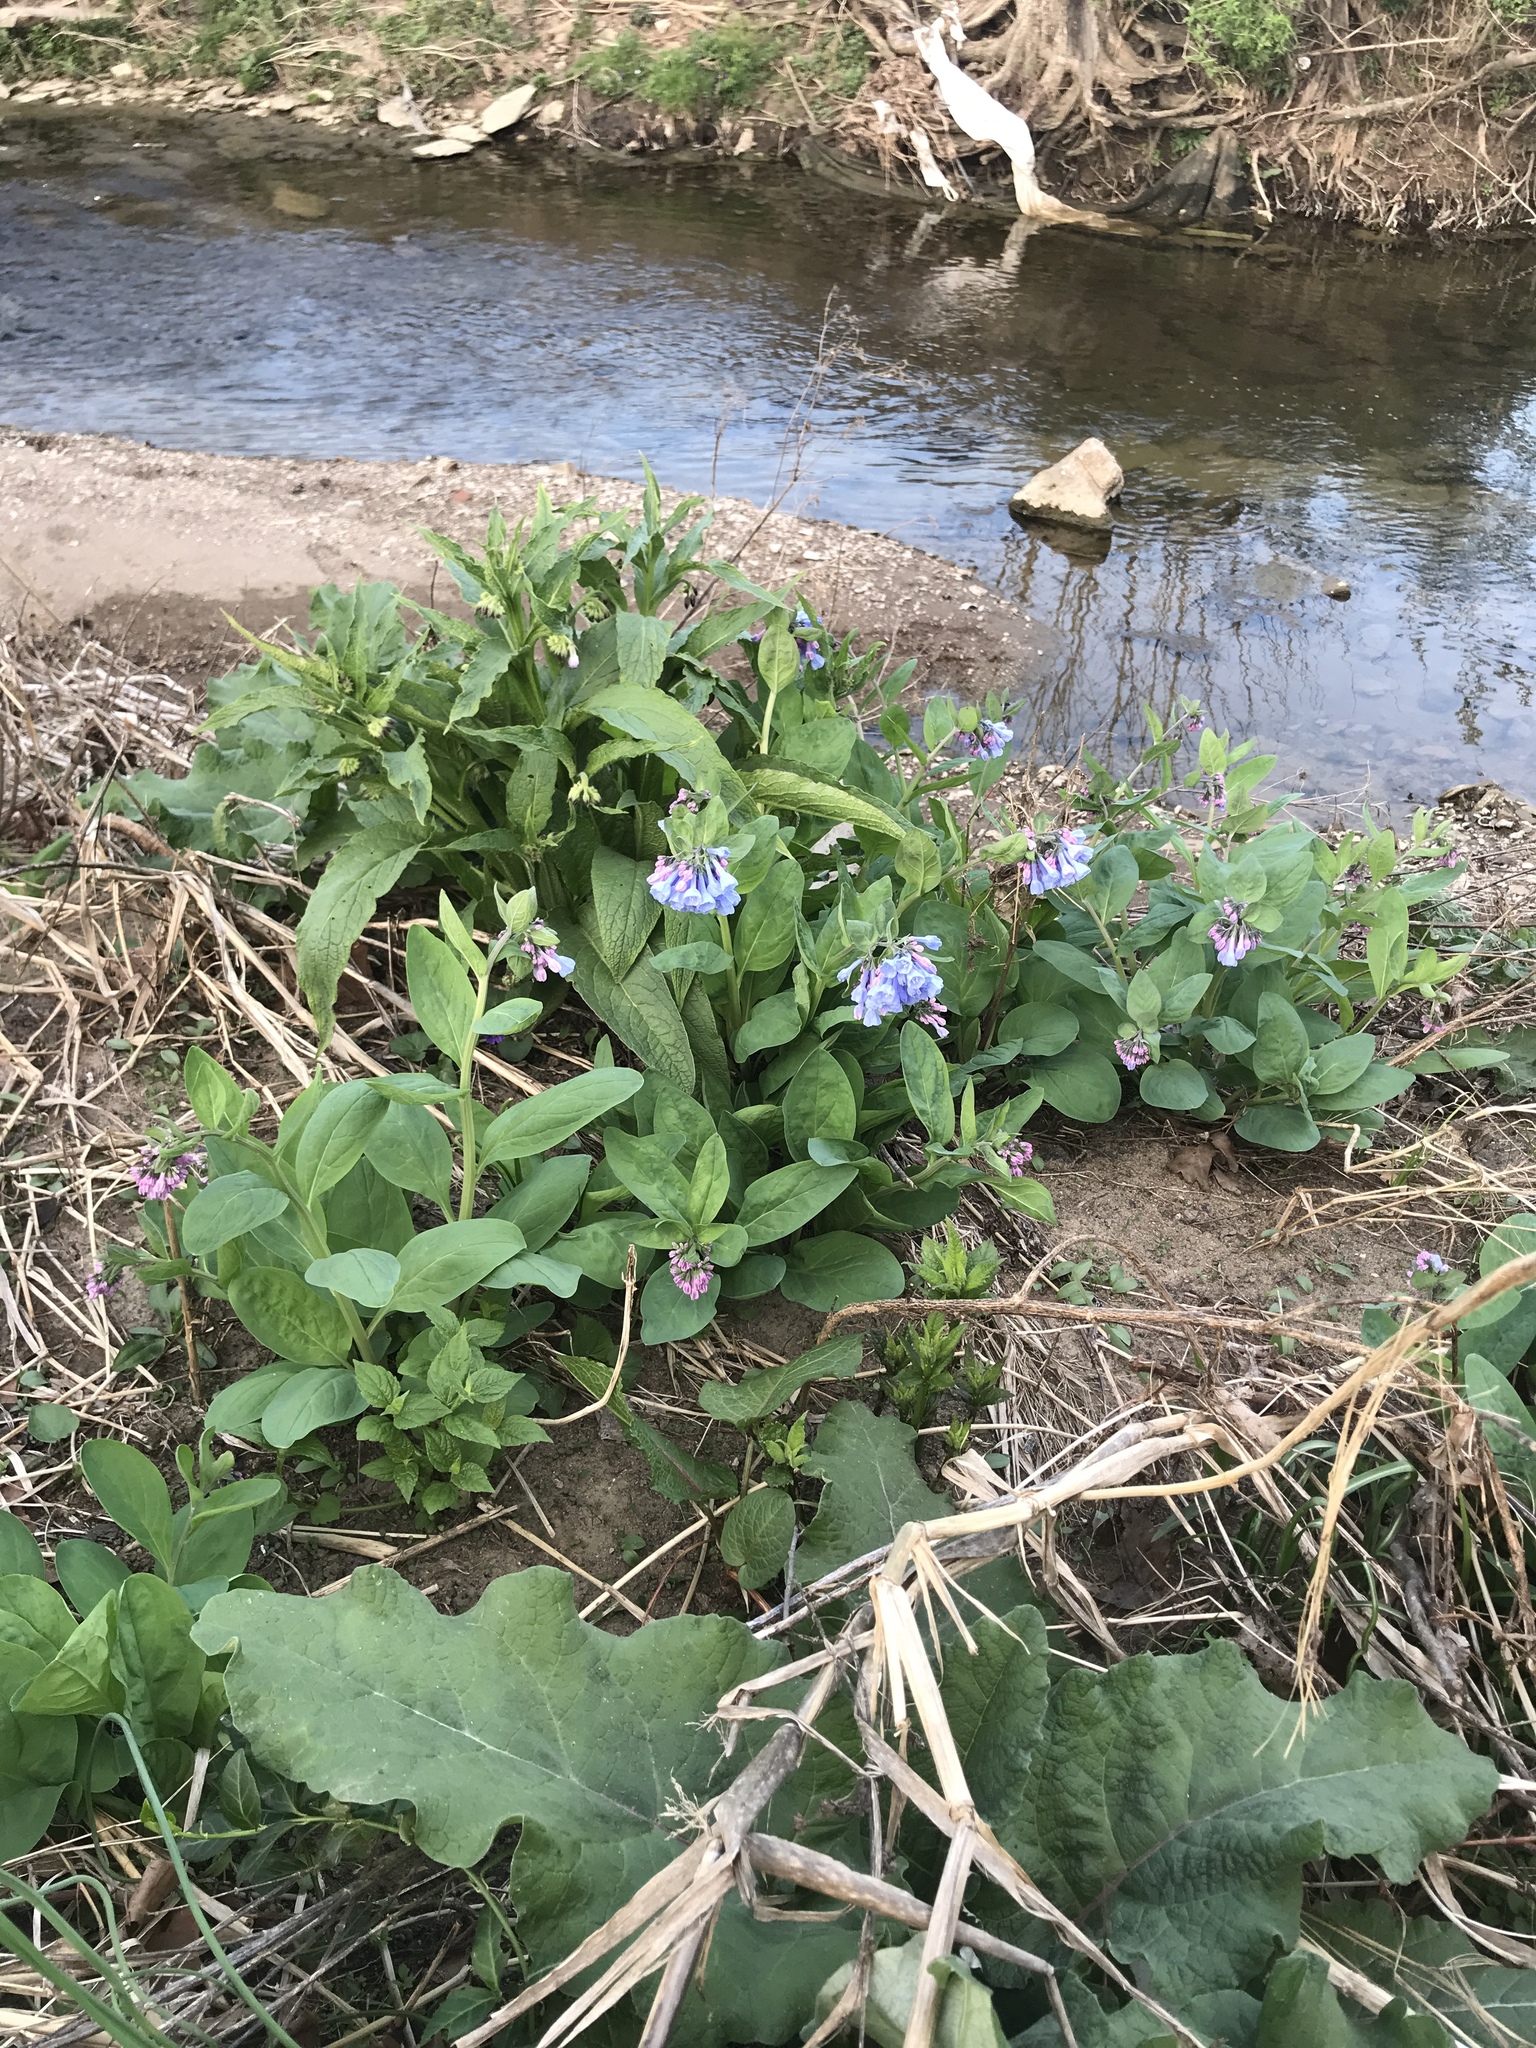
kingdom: Plantae
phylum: Tracheophyta
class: Magnoliopsida
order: Boraginales
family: Boraginaceae
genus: Mertensia
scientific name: Mertensia virginica
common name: Virginia bluebells
